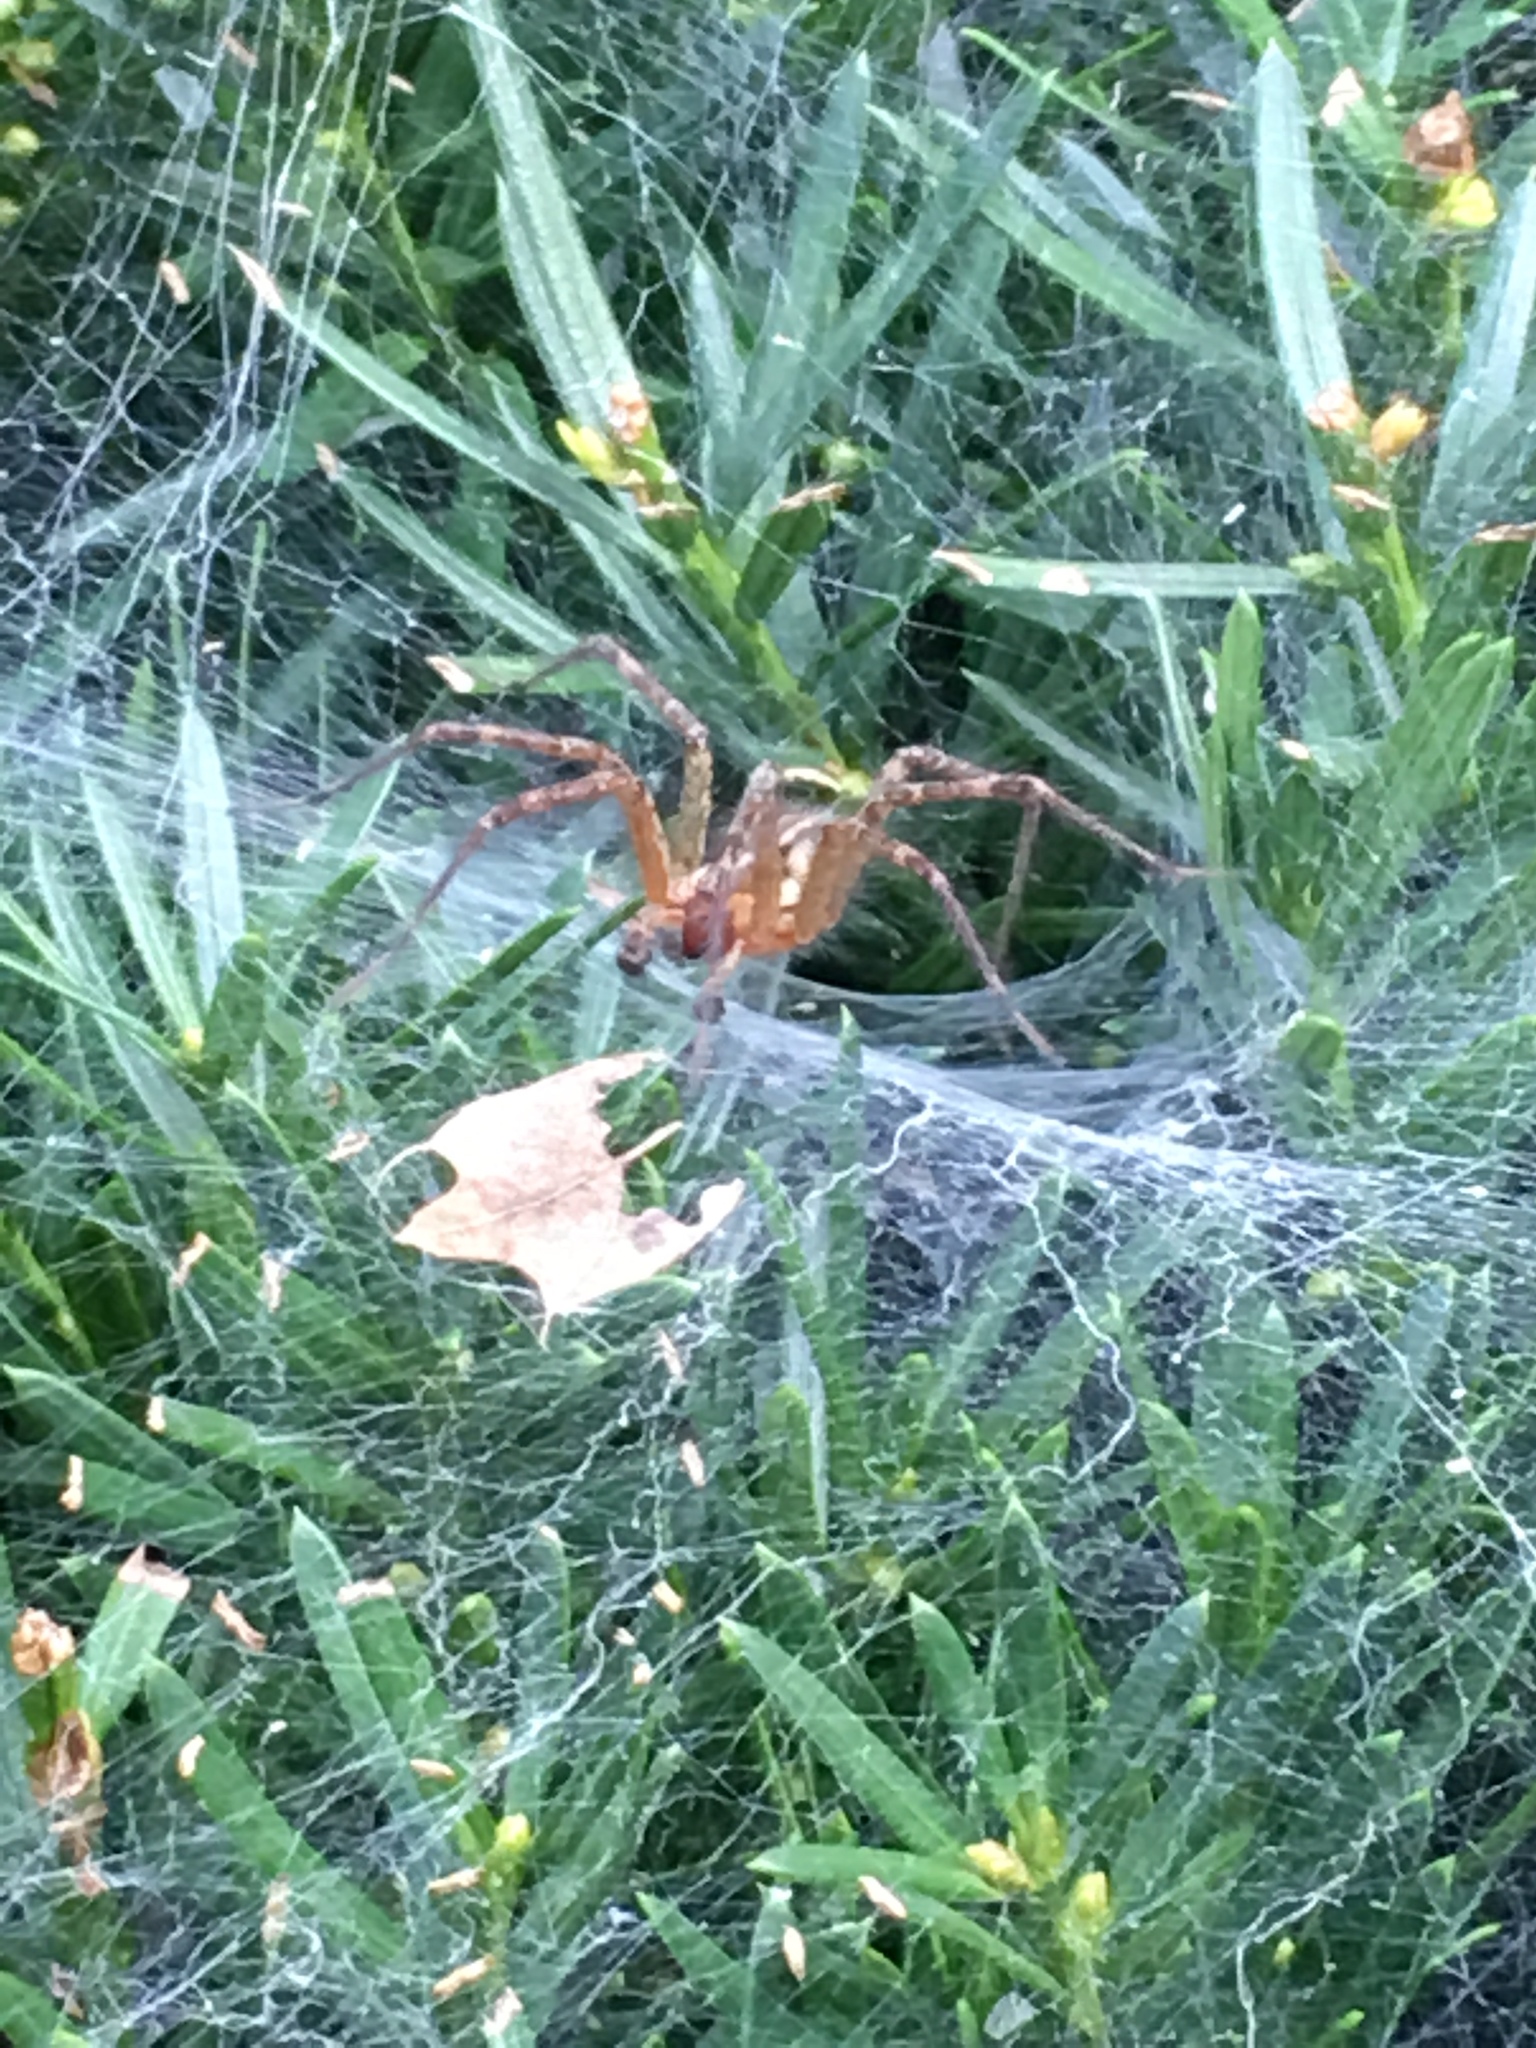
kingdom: Animalia
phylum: Arthropoda
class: Arachnida
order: Araneae
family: Agelenidae
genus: Agelenopsis
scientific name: Agelenopsis
